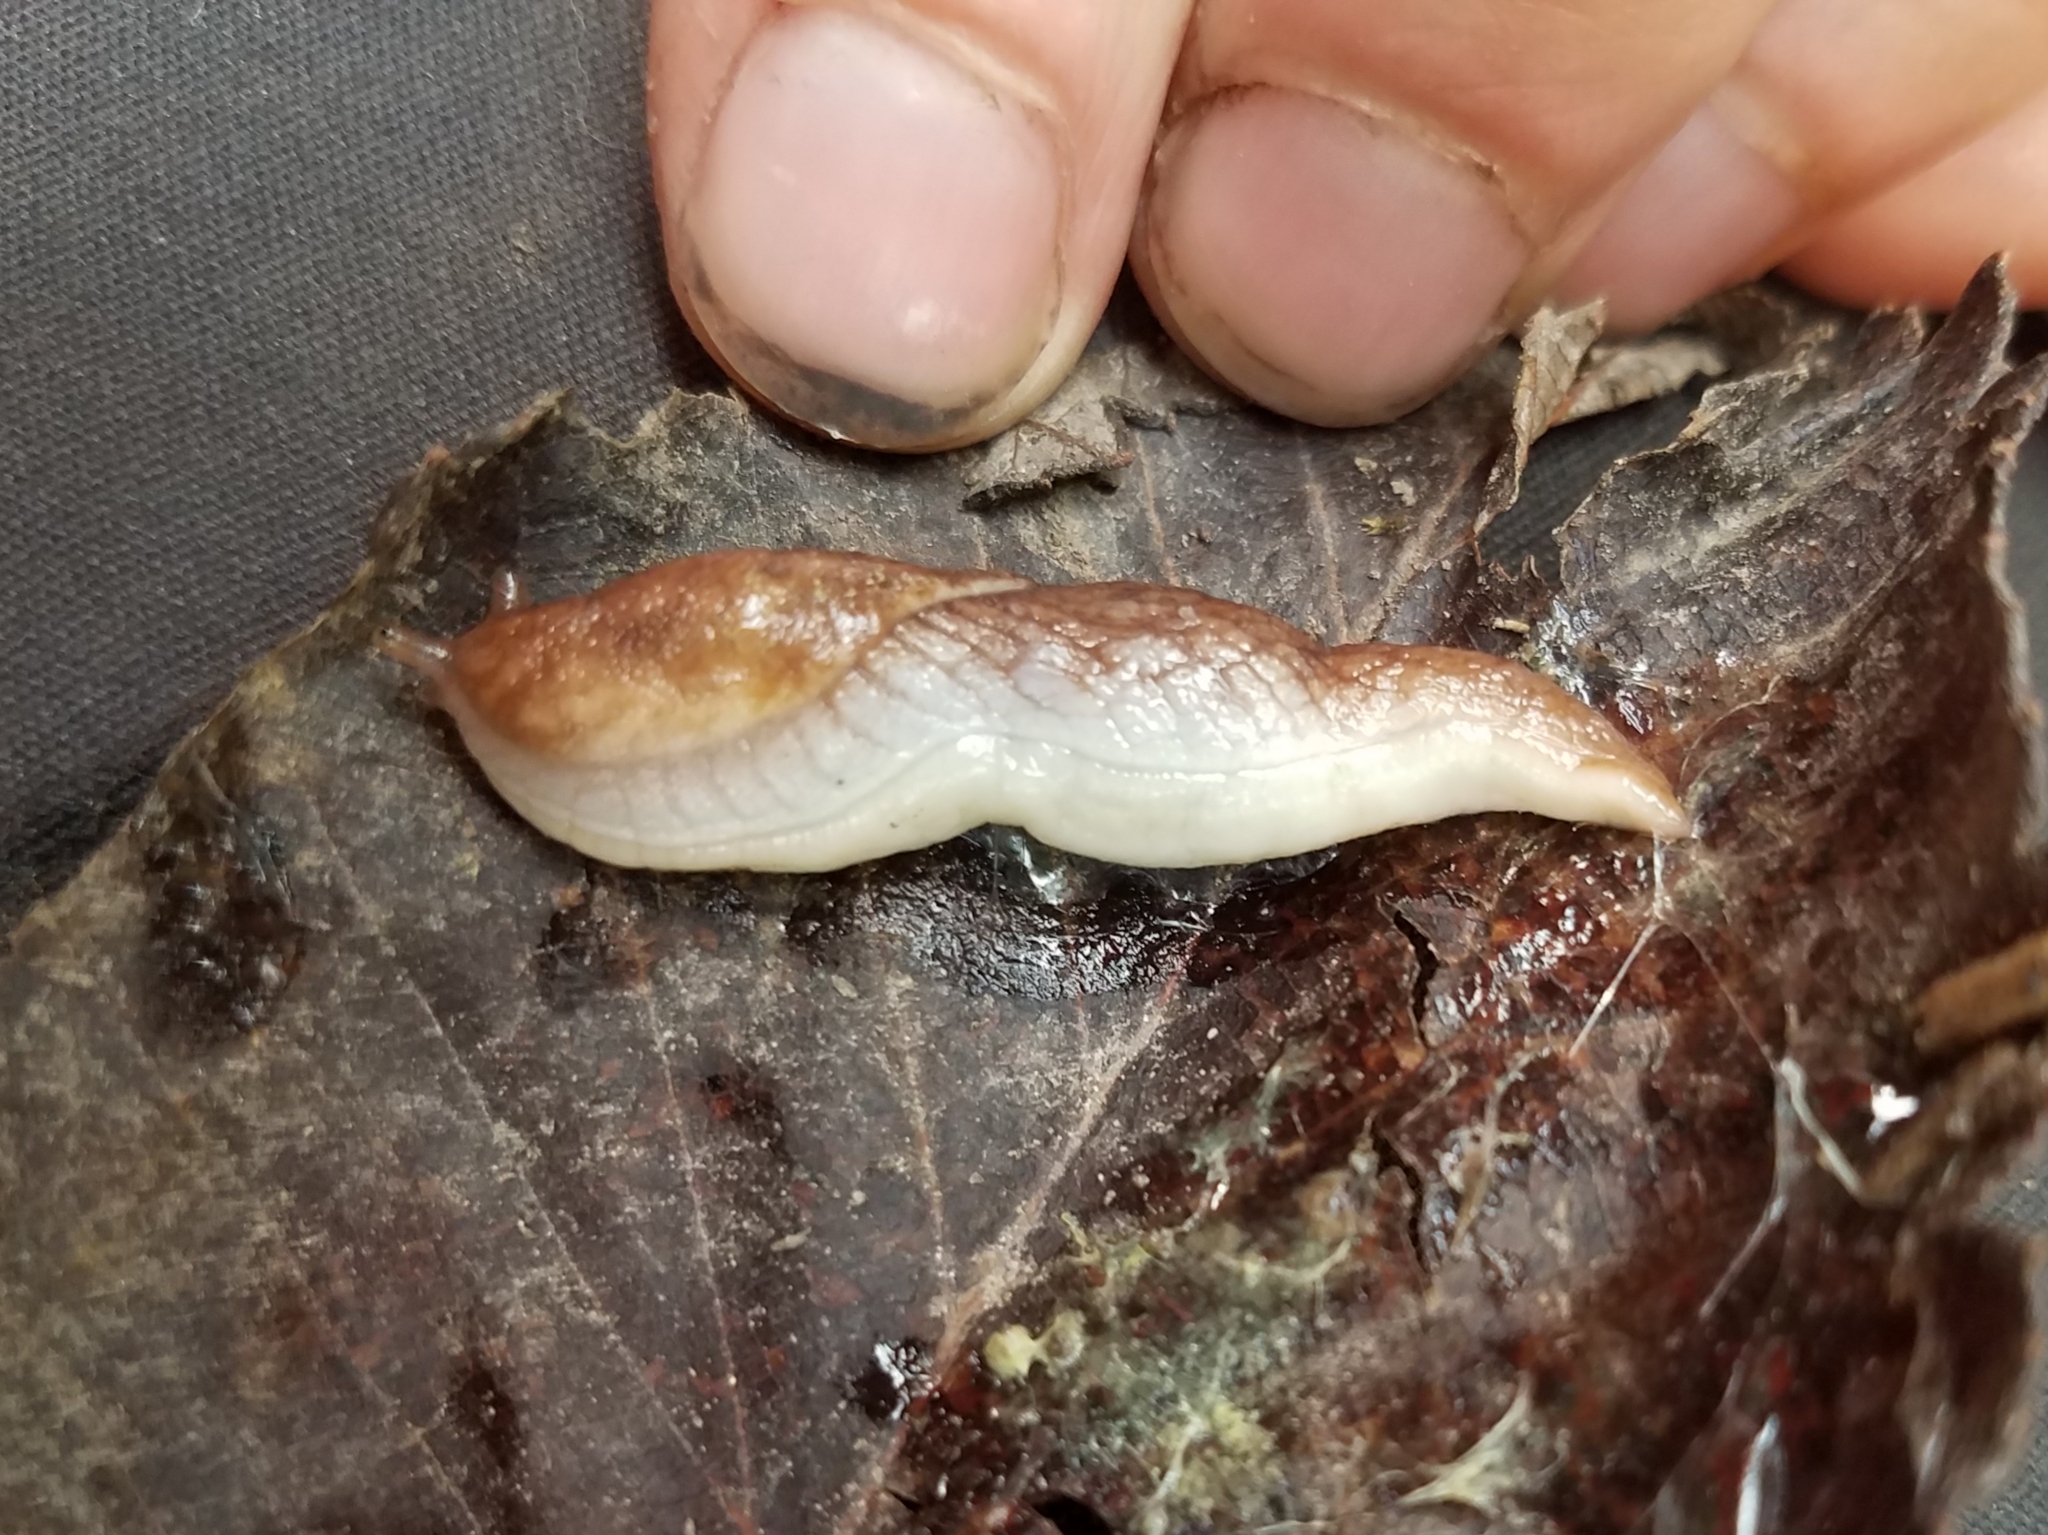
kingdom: Animalia
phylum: Mollusca
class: Gastropoda
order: Stylommatophora
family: Ariolimacidae
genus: Prophysaon
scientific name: Prophysaon andersonii
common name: Reticulate taildropper
